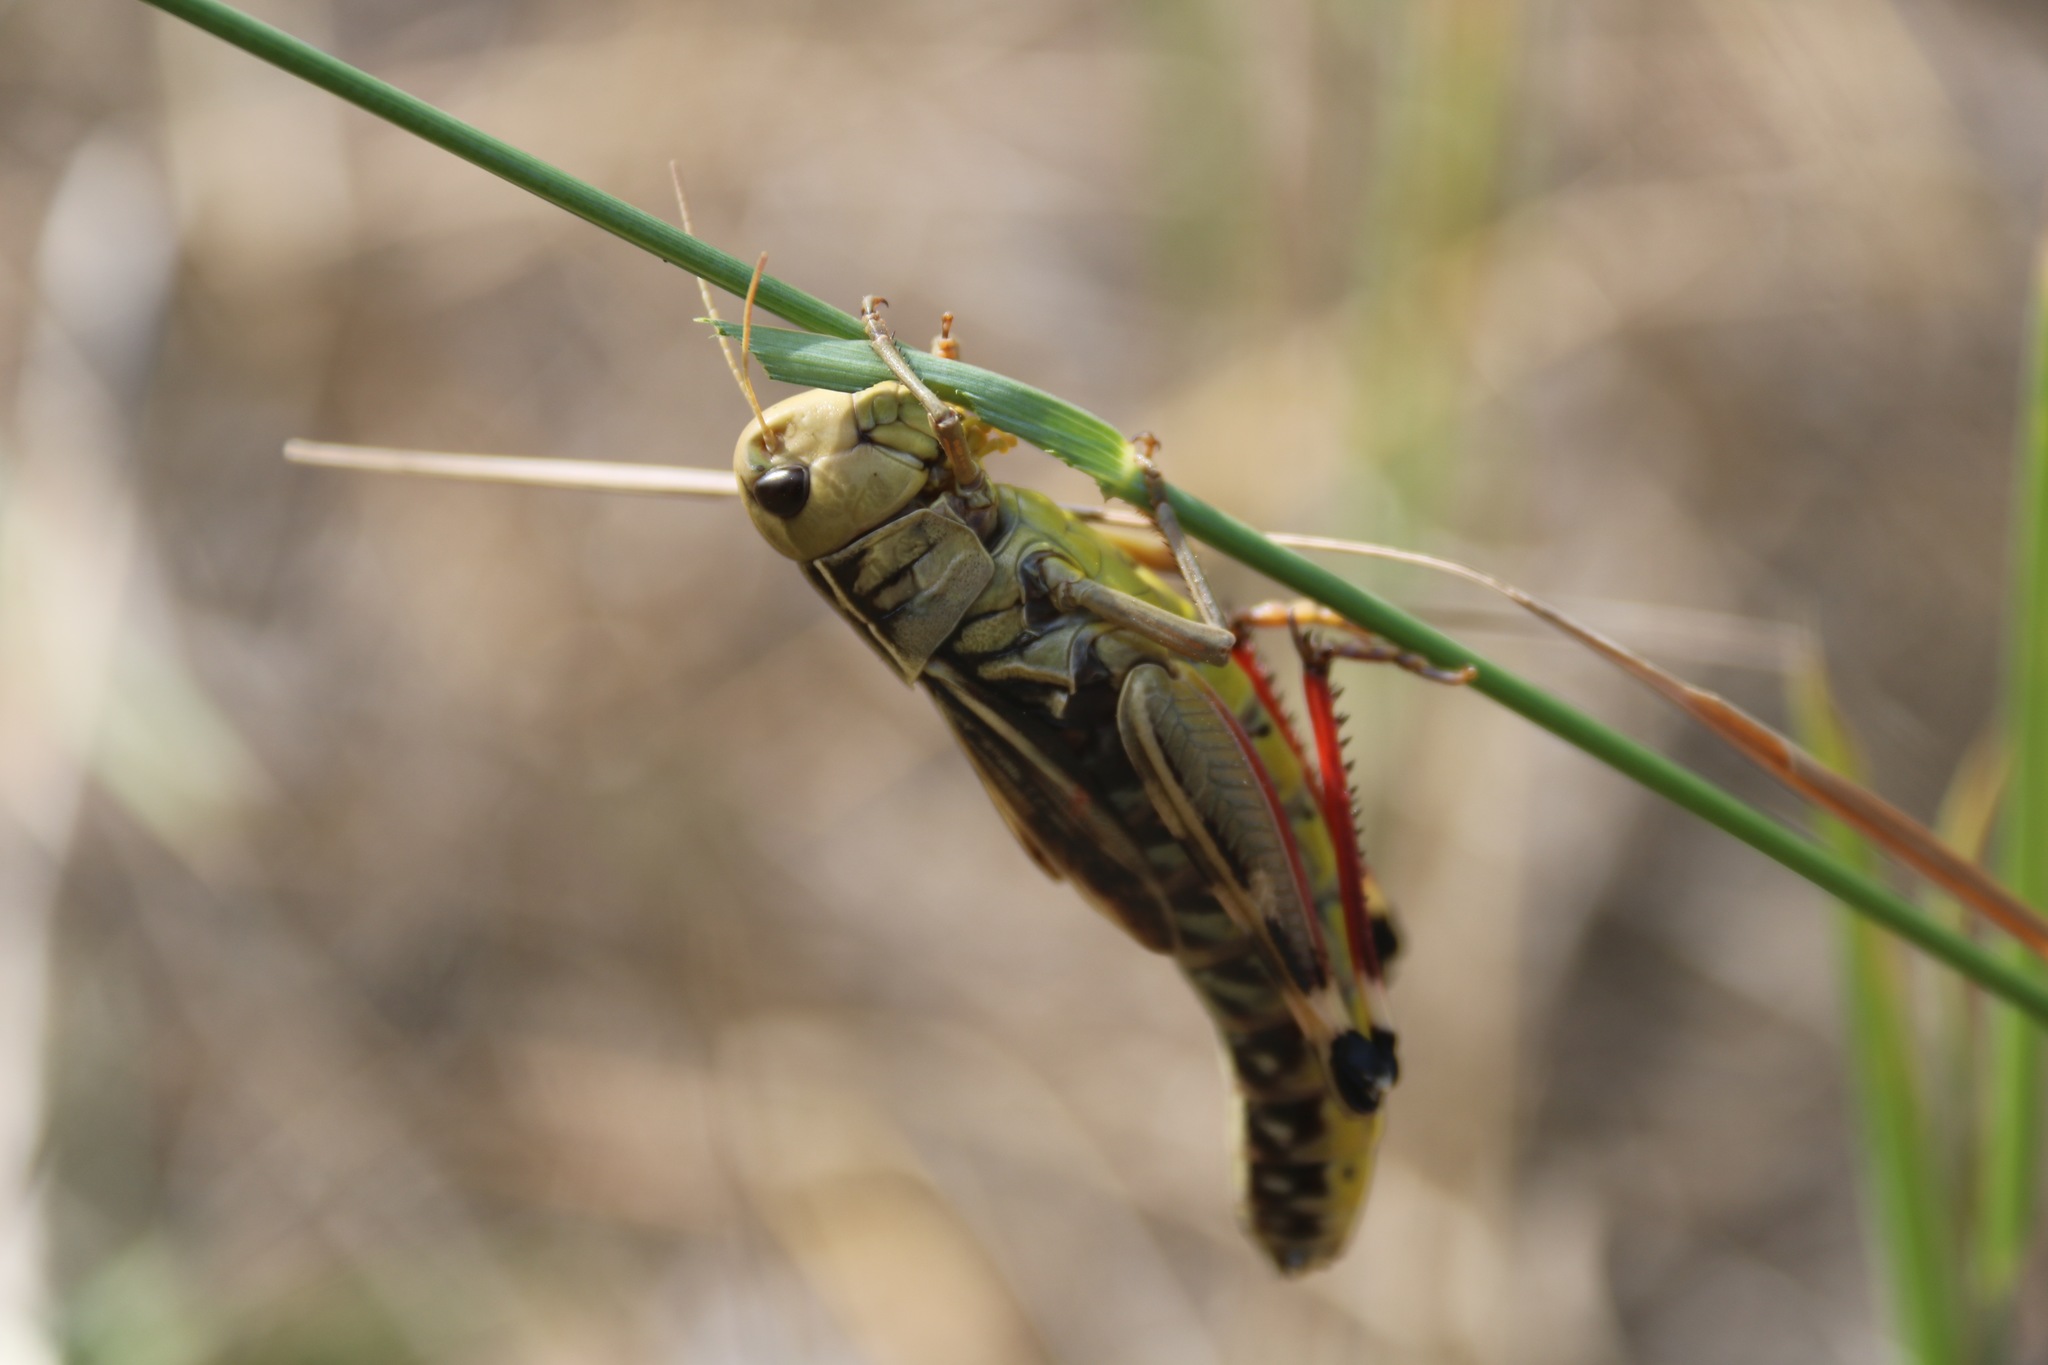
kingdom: Animalia
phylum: Arthropoda
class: Insecta
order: Orthoptera
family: Acrididae
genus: Arcyptera
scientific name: Arcyptera fusca
